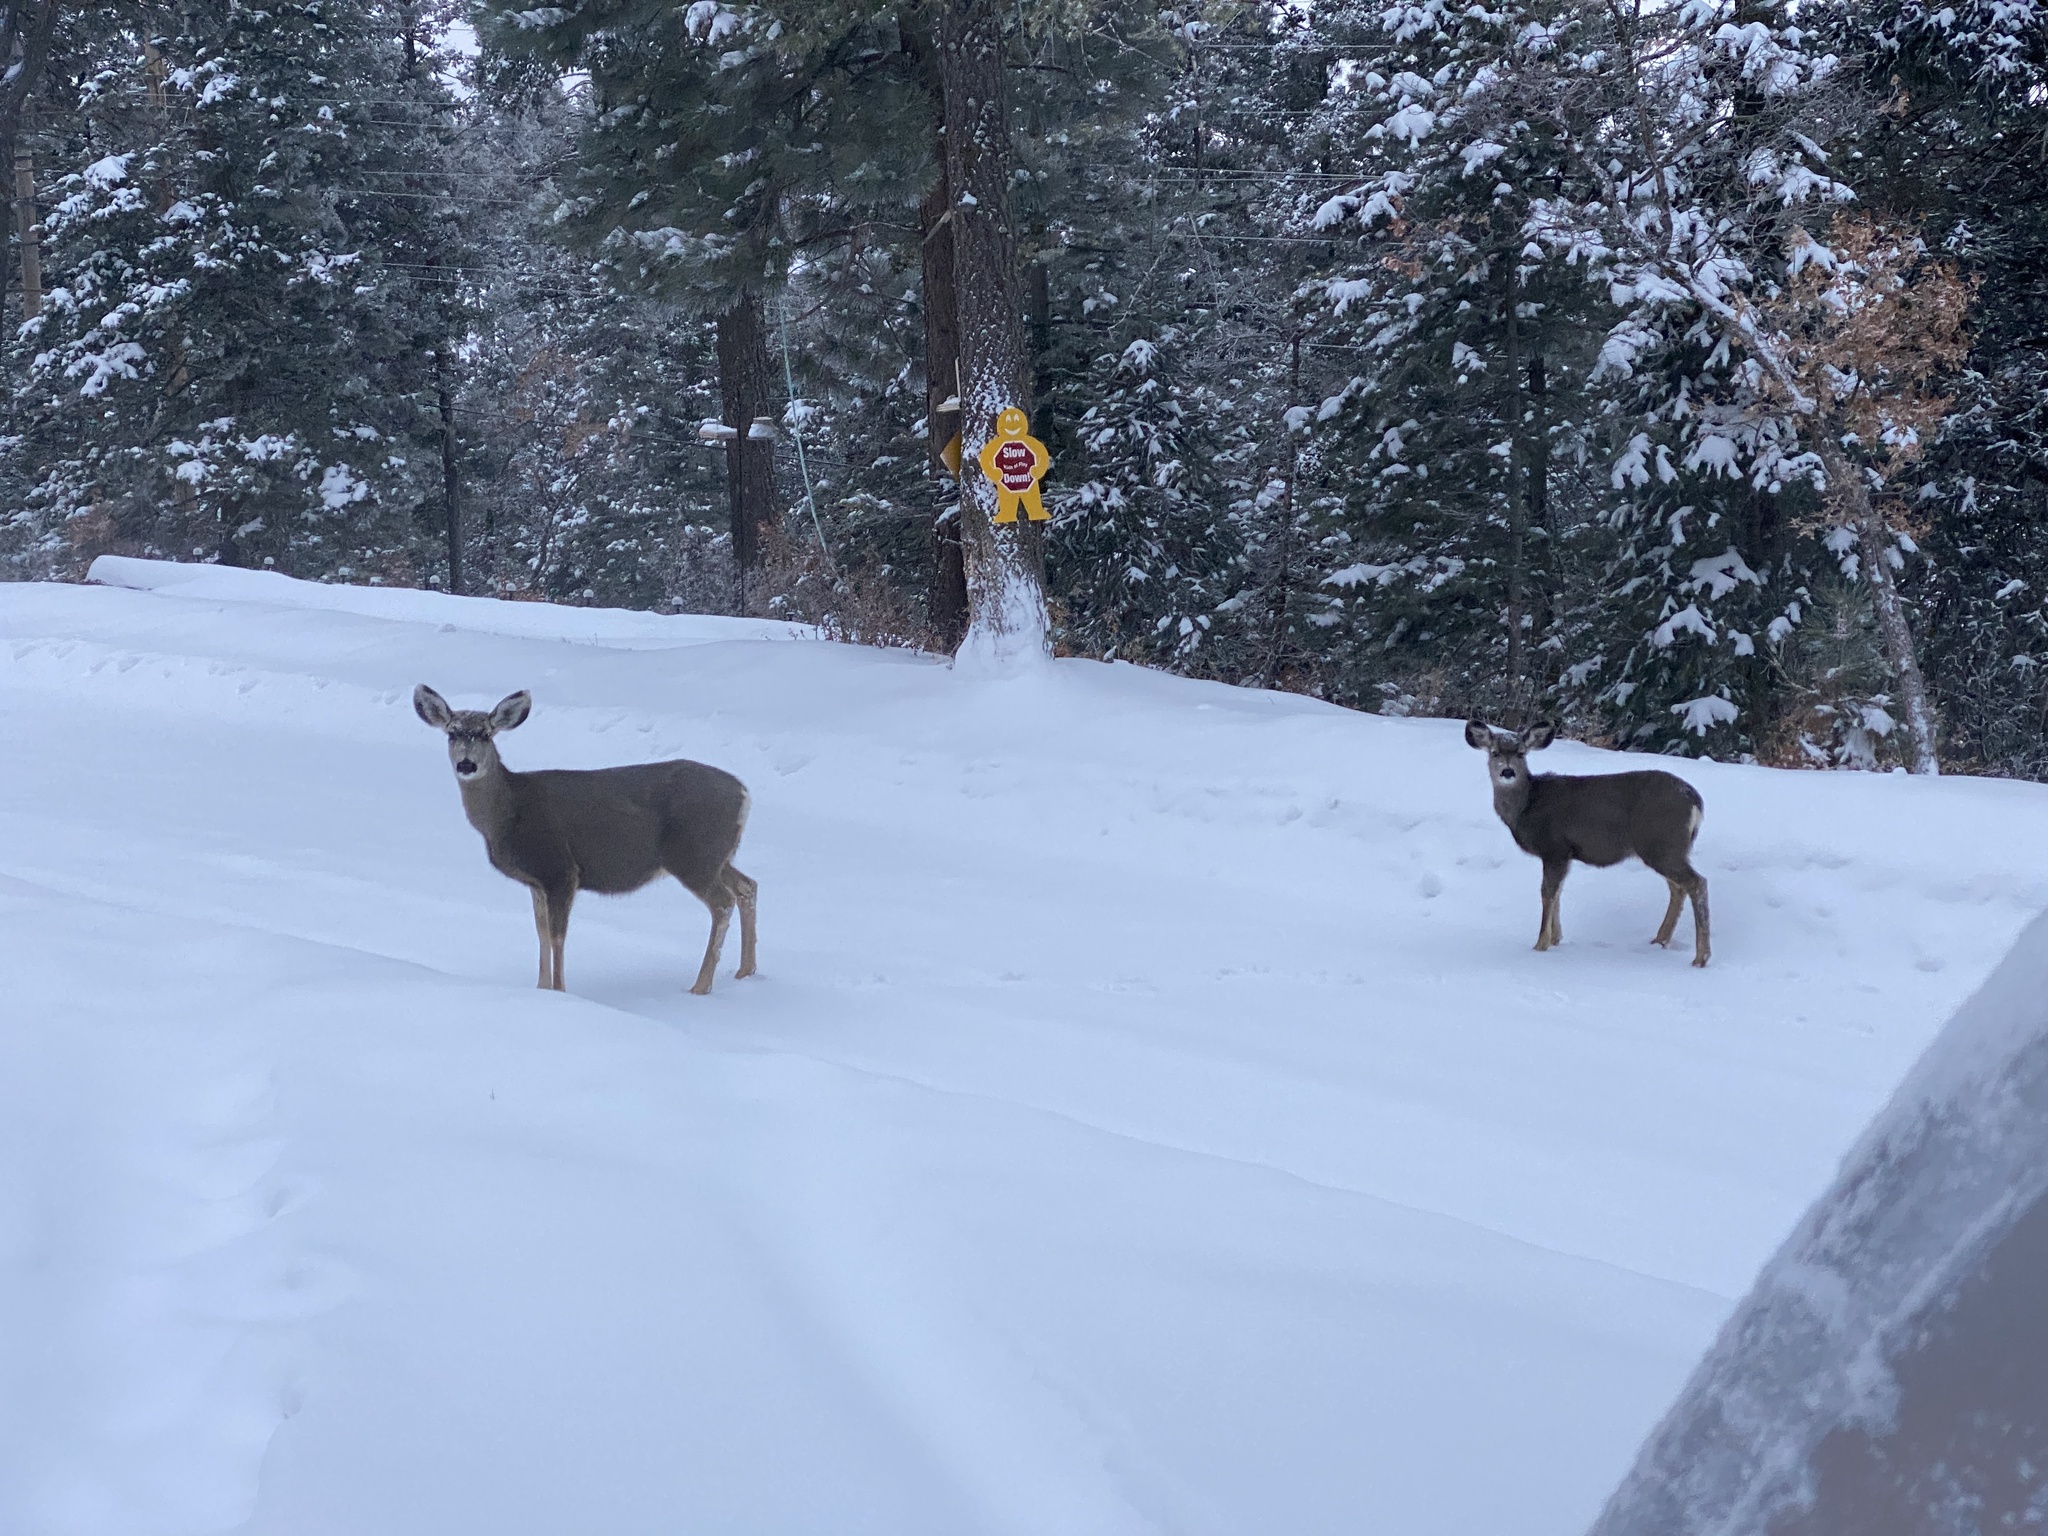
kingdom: Animalia
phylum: Chordata
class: Mammalia
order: Artiodactyla
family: Cervidae
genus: Odocoileus
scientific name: Odocoileus hemionus
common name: Mule deer
